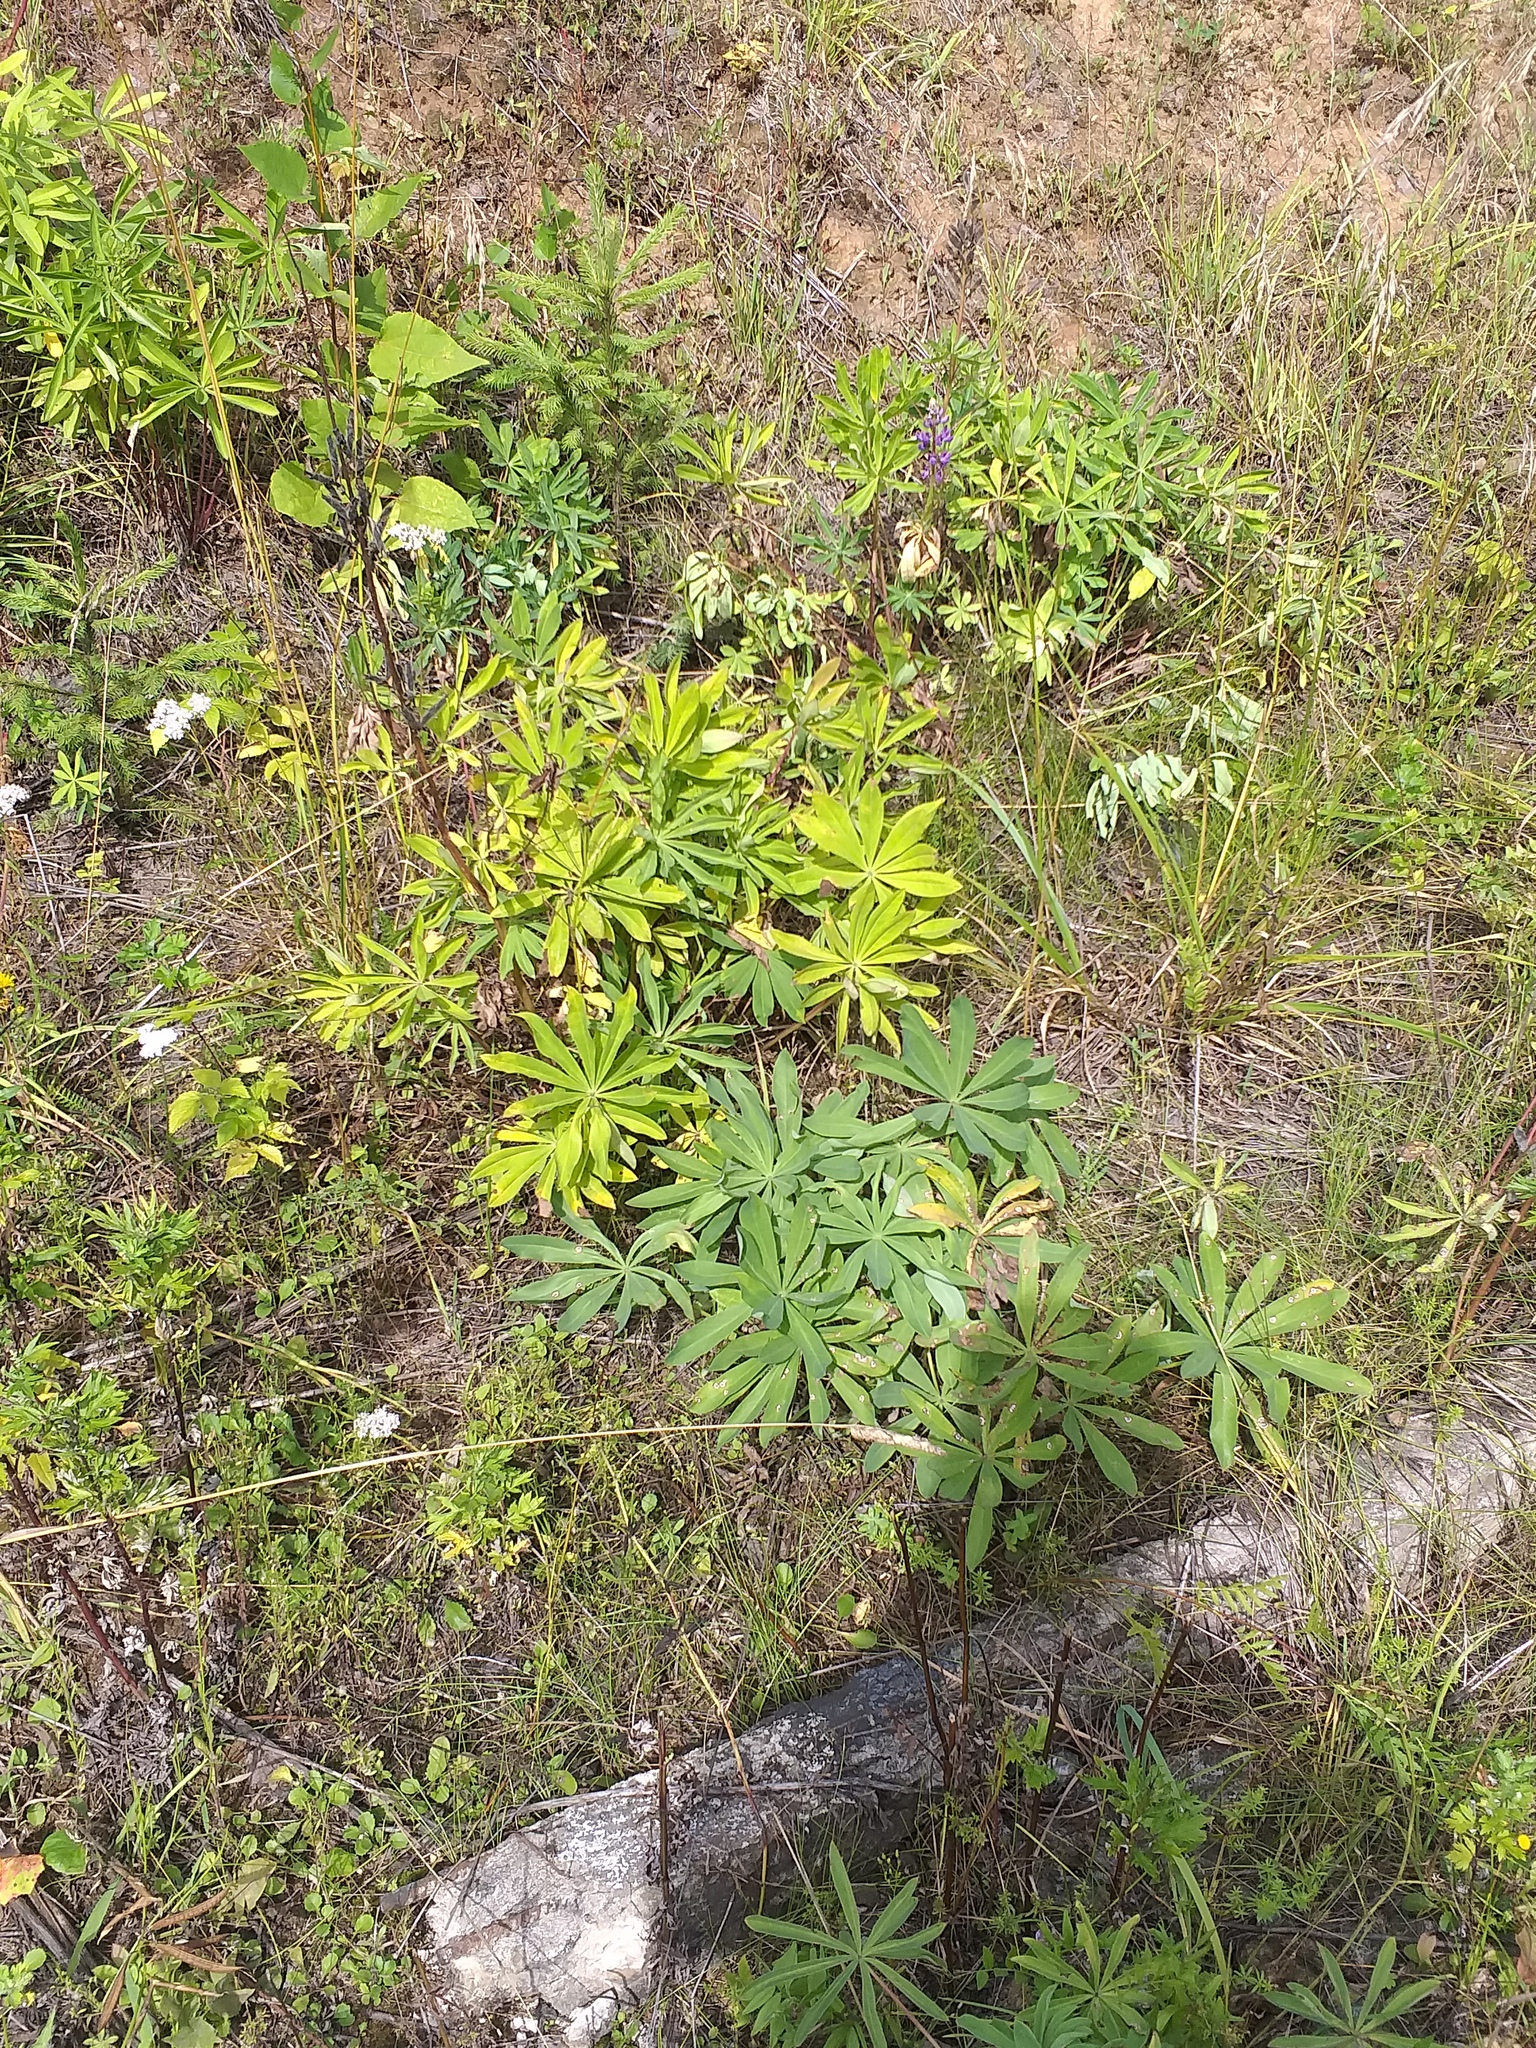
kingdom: Plantae
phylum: Tracheophyta
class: Magnoliopsida
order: Fabales
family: Fabaceae
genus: Lupinus
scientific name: Lupinus polyphyllus
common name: Garden lupin
